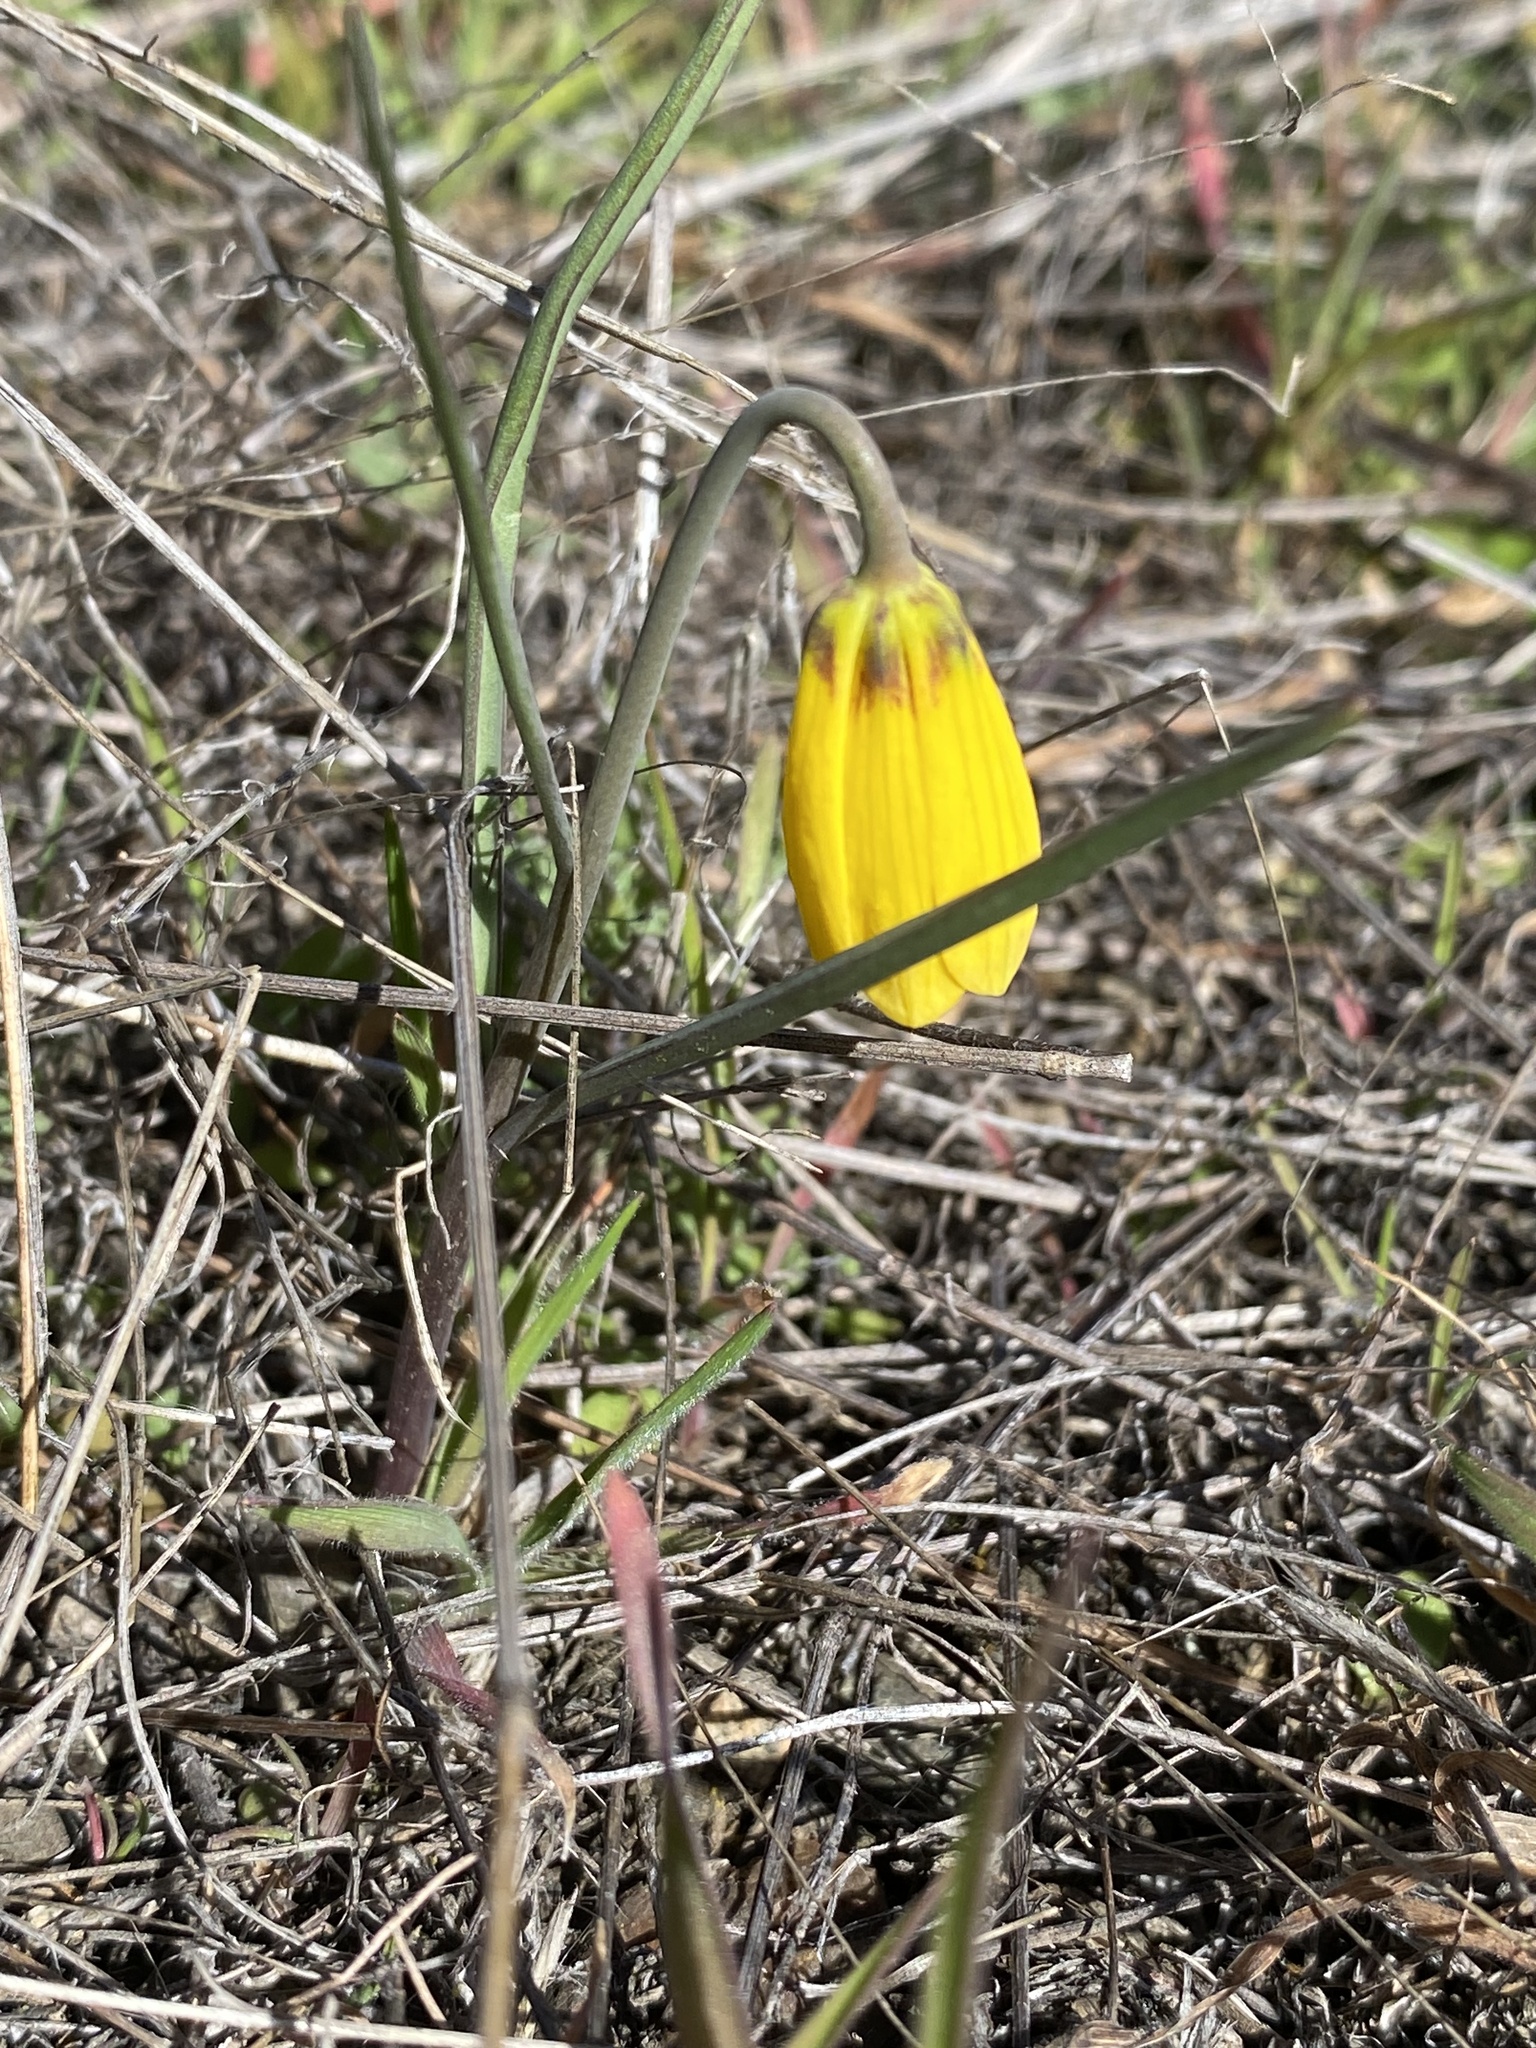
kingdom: Plantae
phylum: Tracheophyta
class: Liliopsida
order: Liliales
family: Liliaceae
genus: Fritillaria
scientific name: Fritillaria pudica
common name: Yellow fritillary
